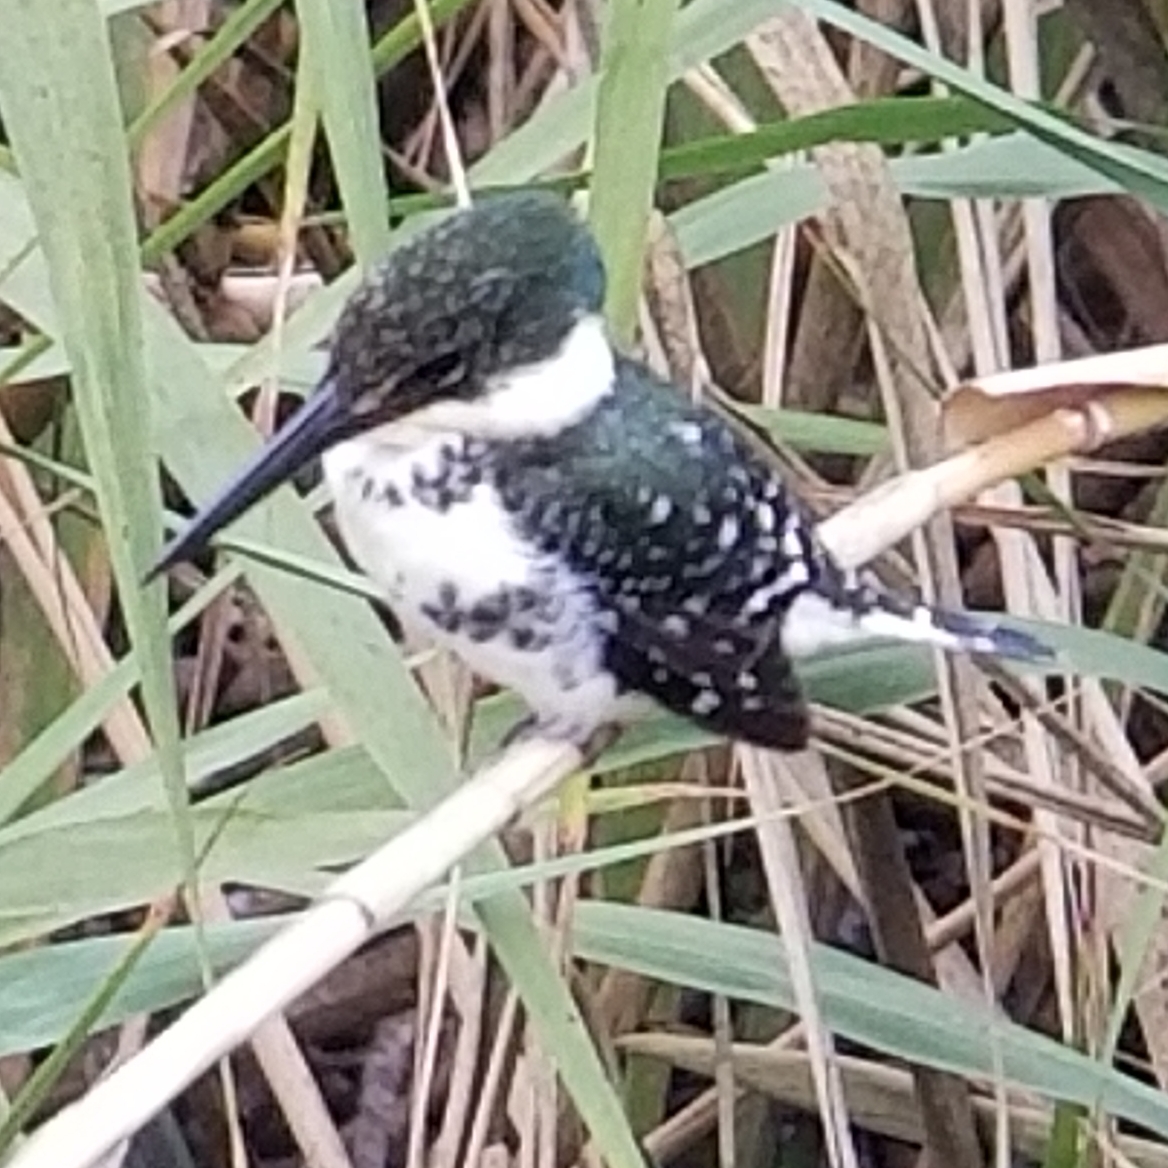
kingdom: Animalia
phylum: Chordata
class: Aves
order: Coraciiformes
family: Alcedinidae
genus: Chloroceryle
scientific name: Chloroceryle americana
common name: Green kingfisher
